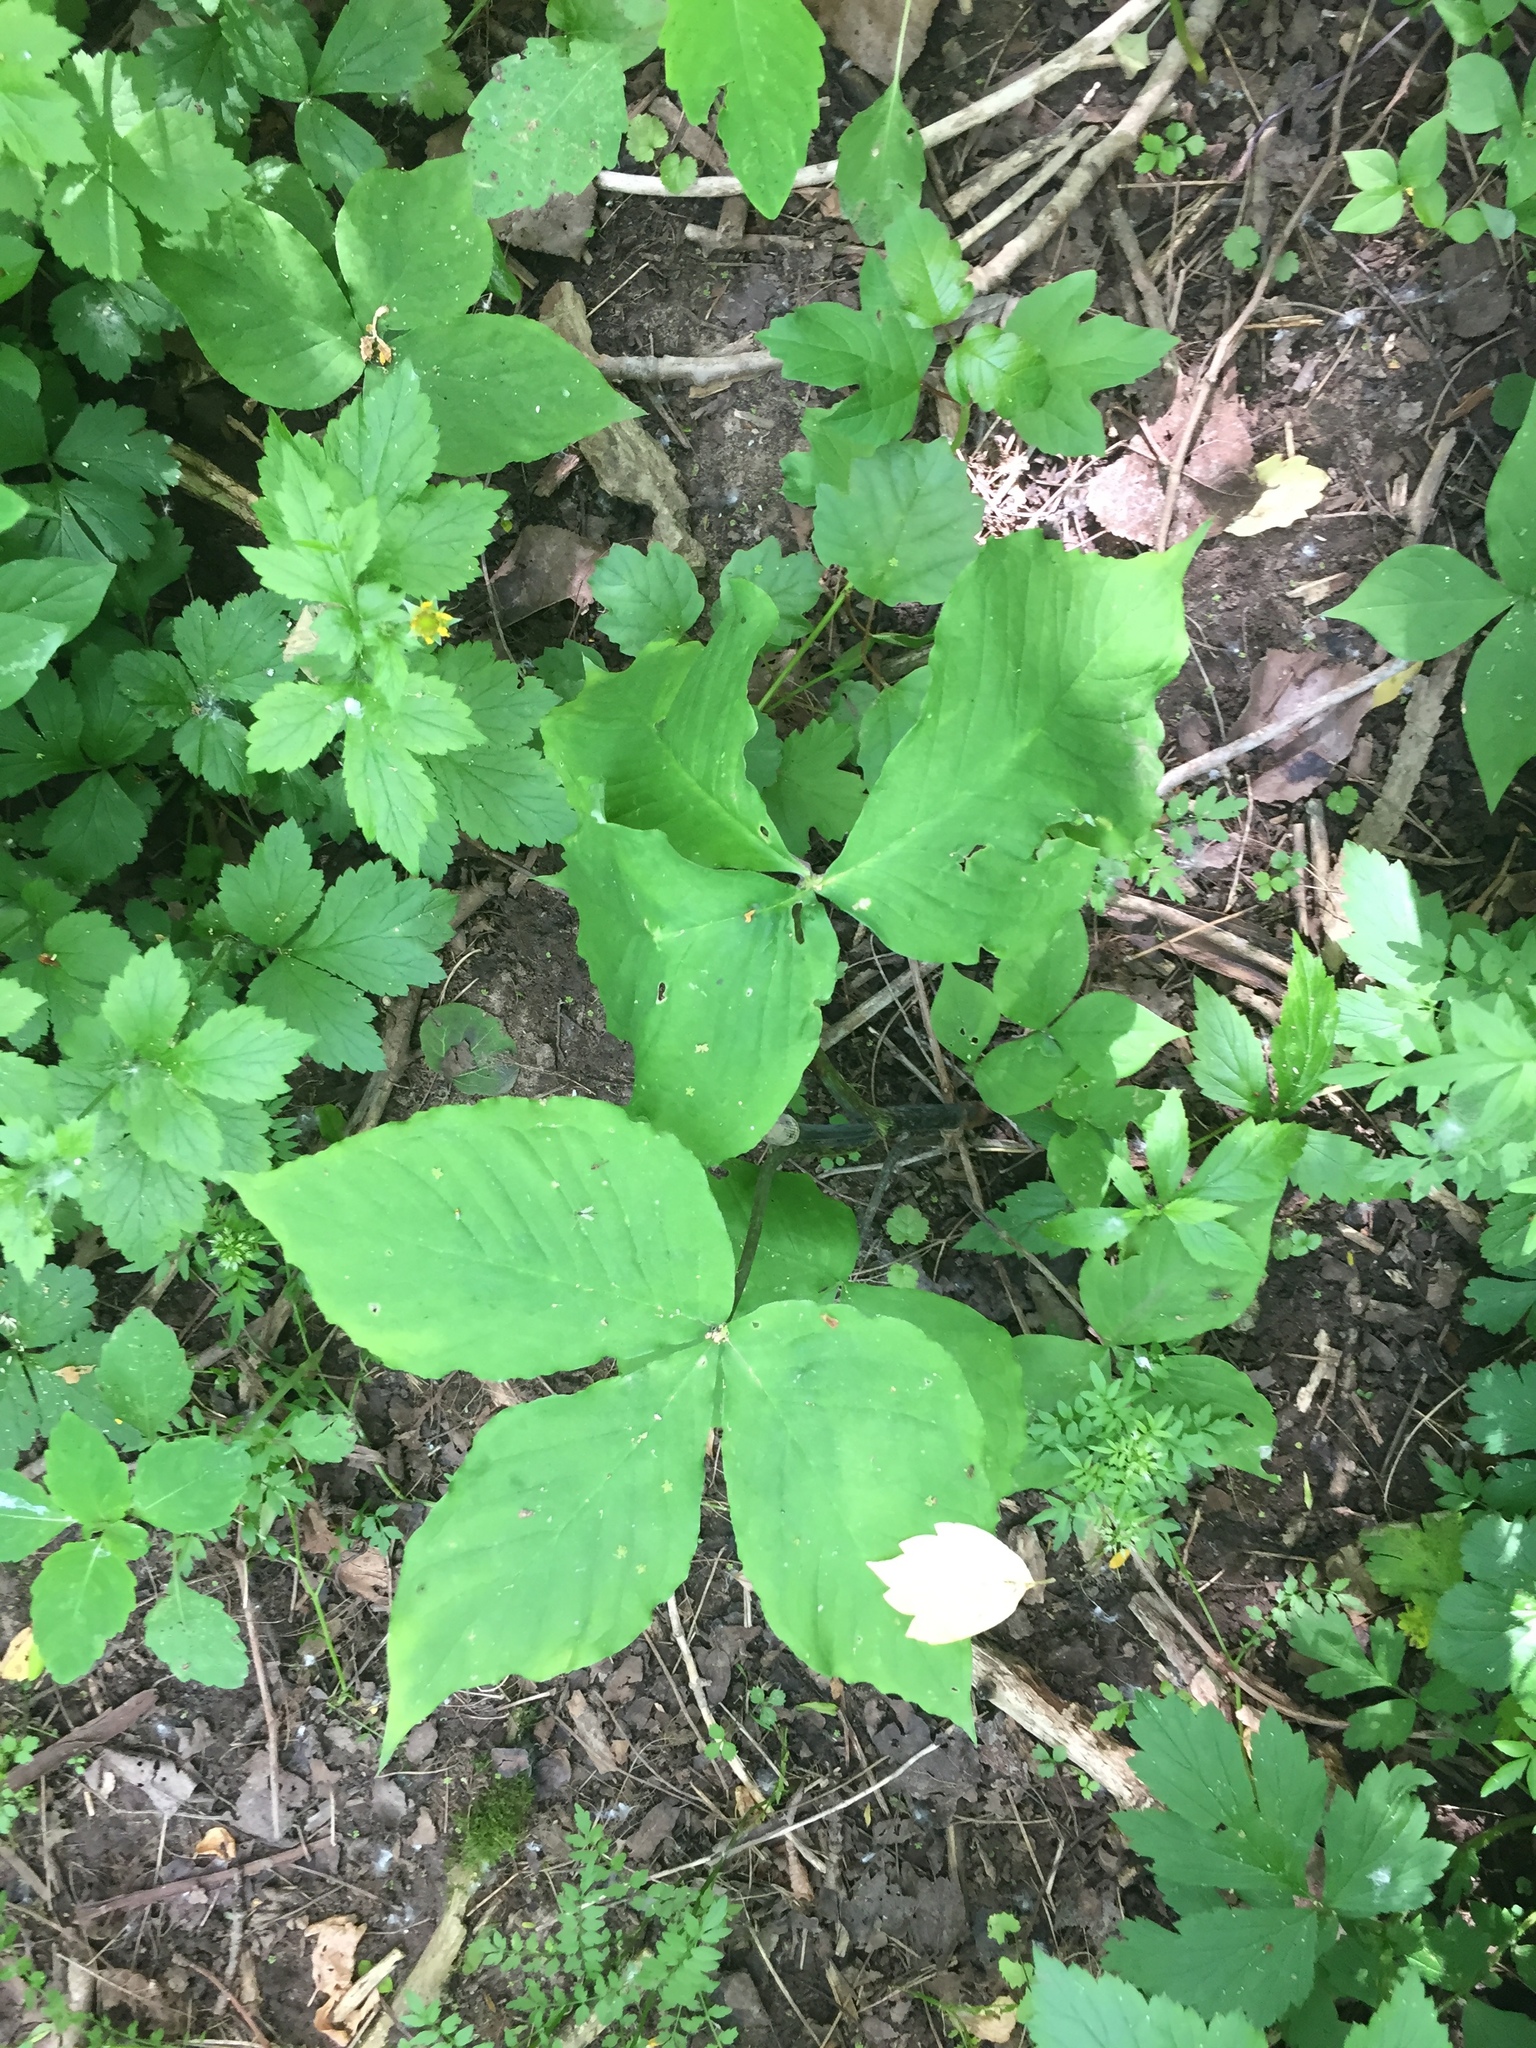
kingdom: Plantae
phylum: Tracheophyta
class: Liliopsida
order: Alismatales
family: Araceae
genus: Arisaema
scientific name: Arisaema triphyllum
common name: Jack-in-the-pulpit
